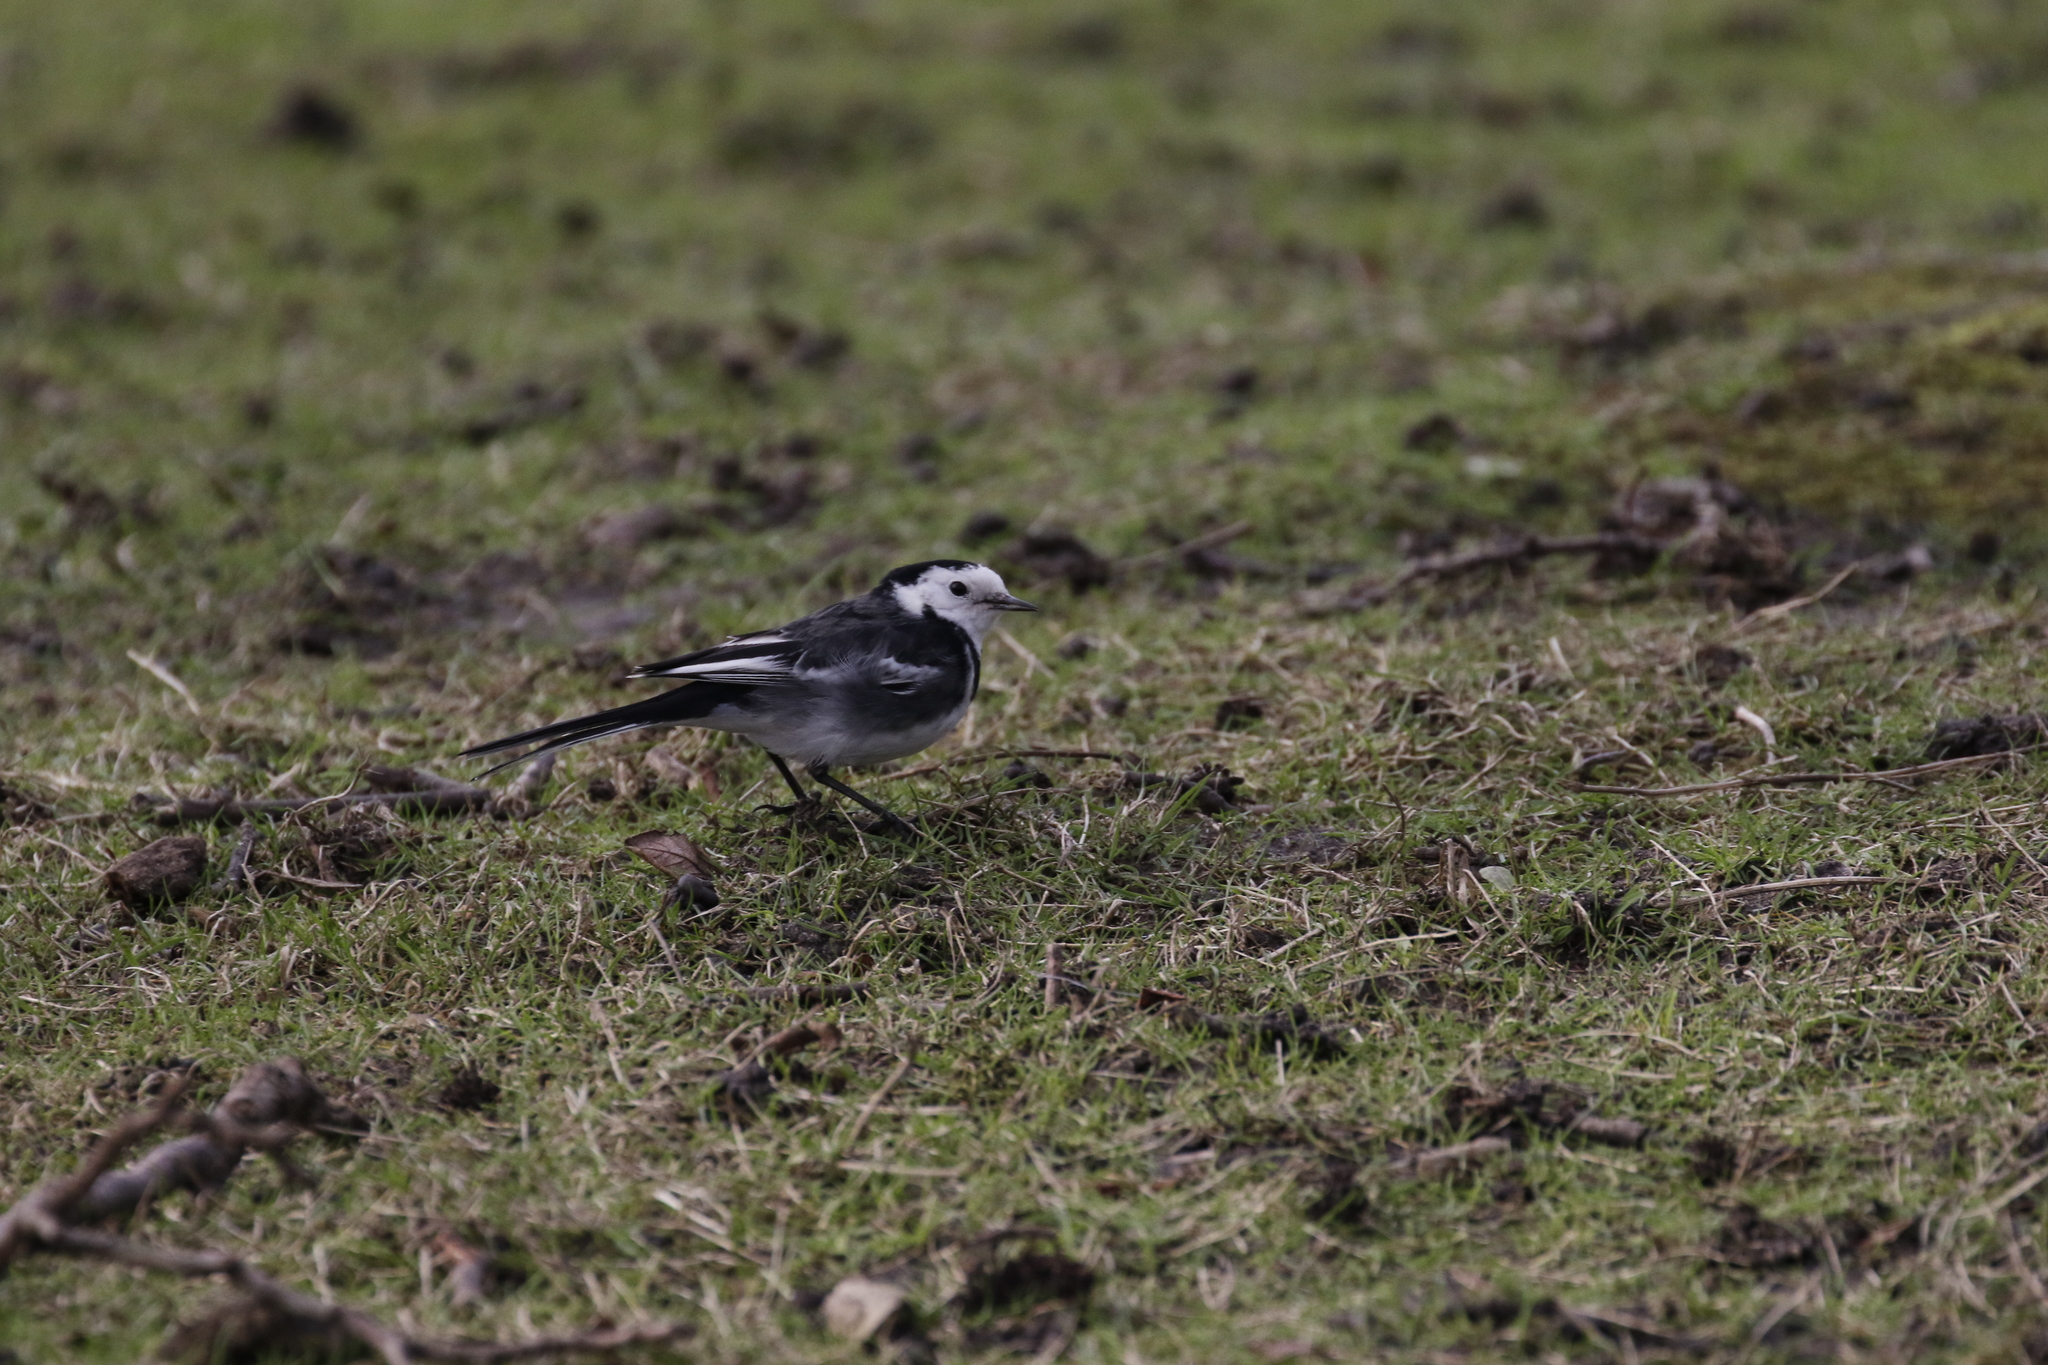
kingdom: Animalia
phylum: Chordata
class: Aves
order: Passeriformes
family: Motacillidae
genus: Motacilla
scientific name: Motacilla alba
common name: White wagtail
